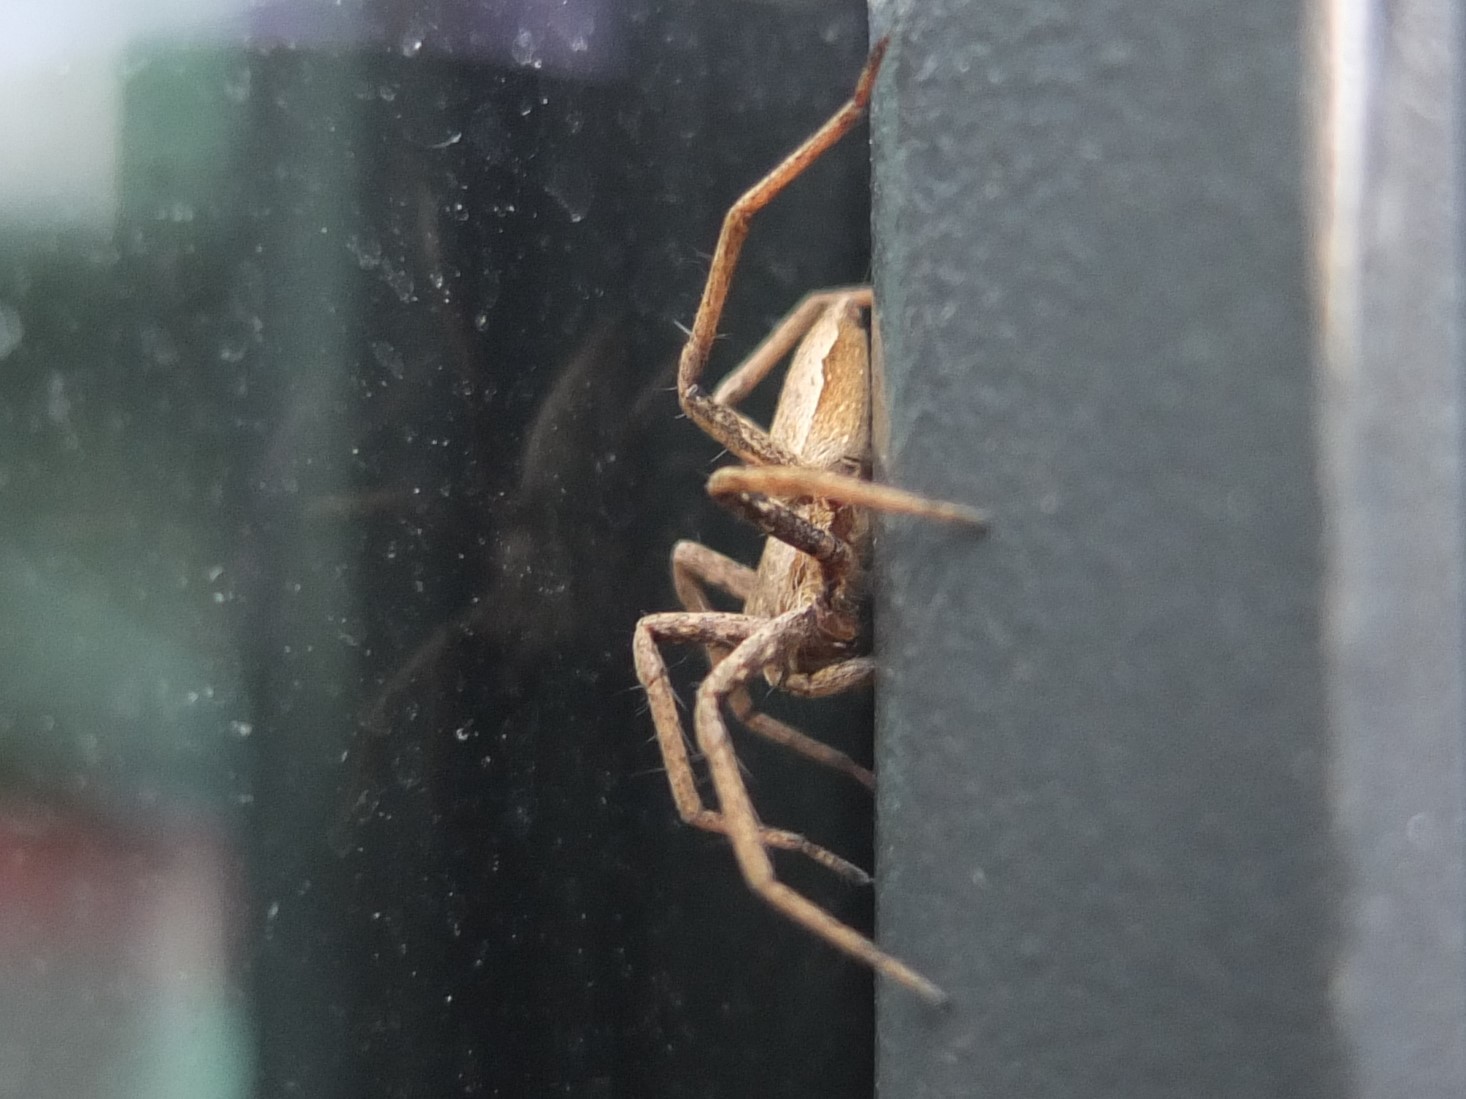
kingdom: Animalia
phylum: Arthropoda
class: Arachnida
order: Araneae
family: Pisauridae
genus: Pisaura
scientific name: Pisaura mirabilis
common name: Tent spider
